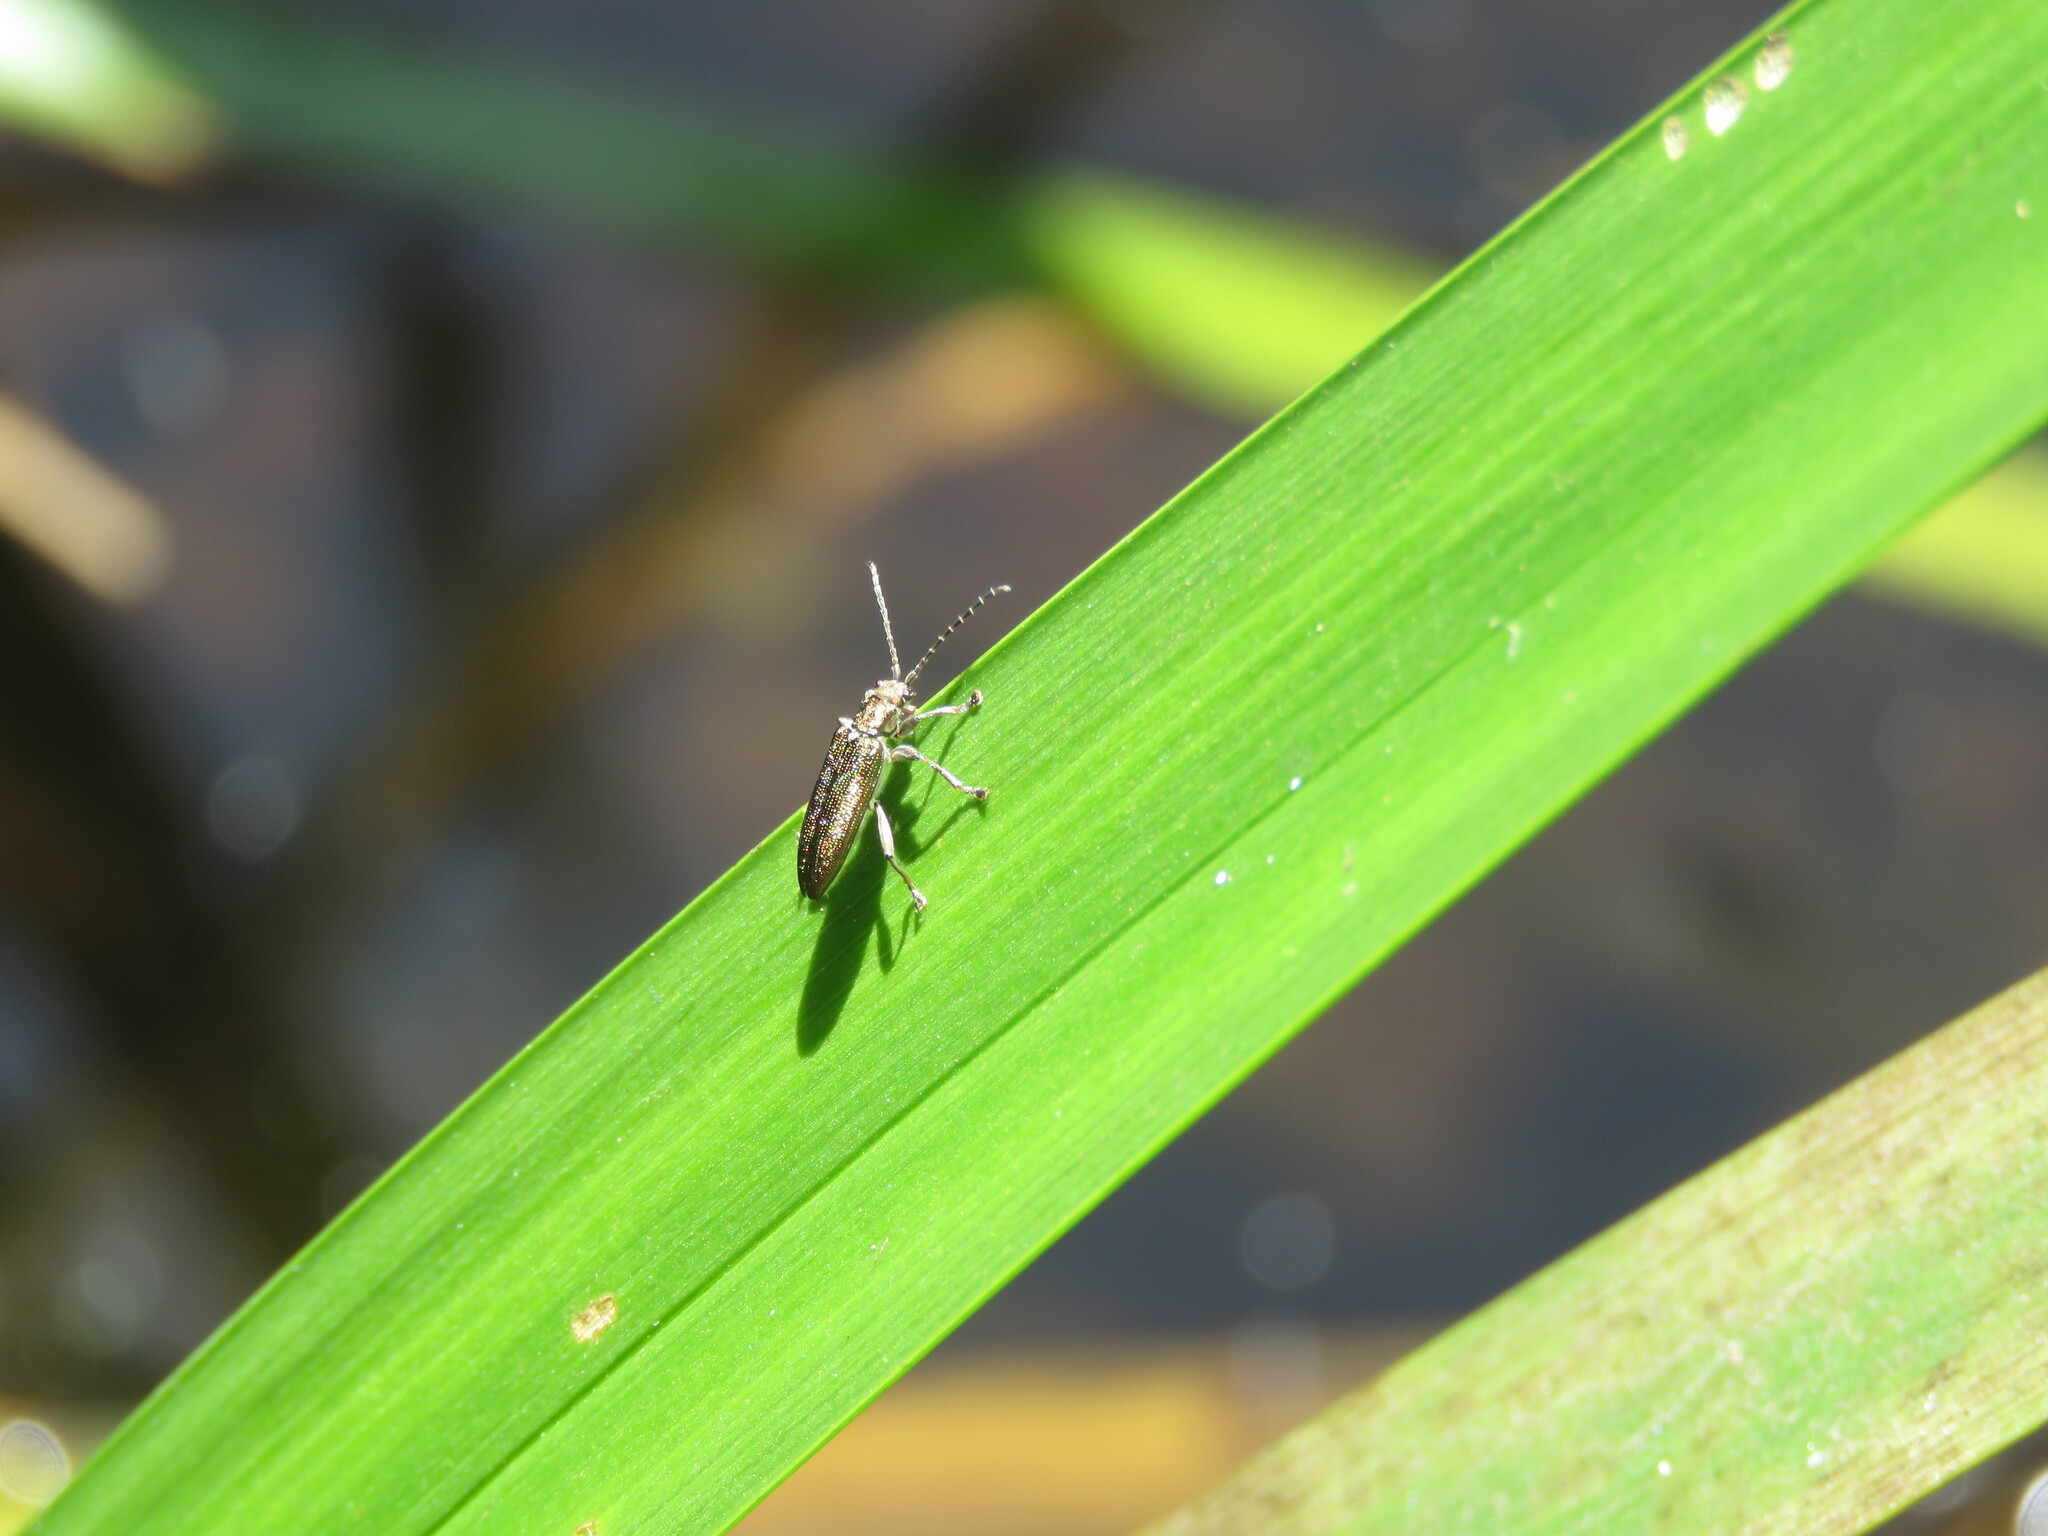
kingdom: Animalia
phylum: Arthropoda
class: Insecta
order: Coleoptera
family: Chrysomelidae
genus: Donacia
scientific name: Donacia simplex
